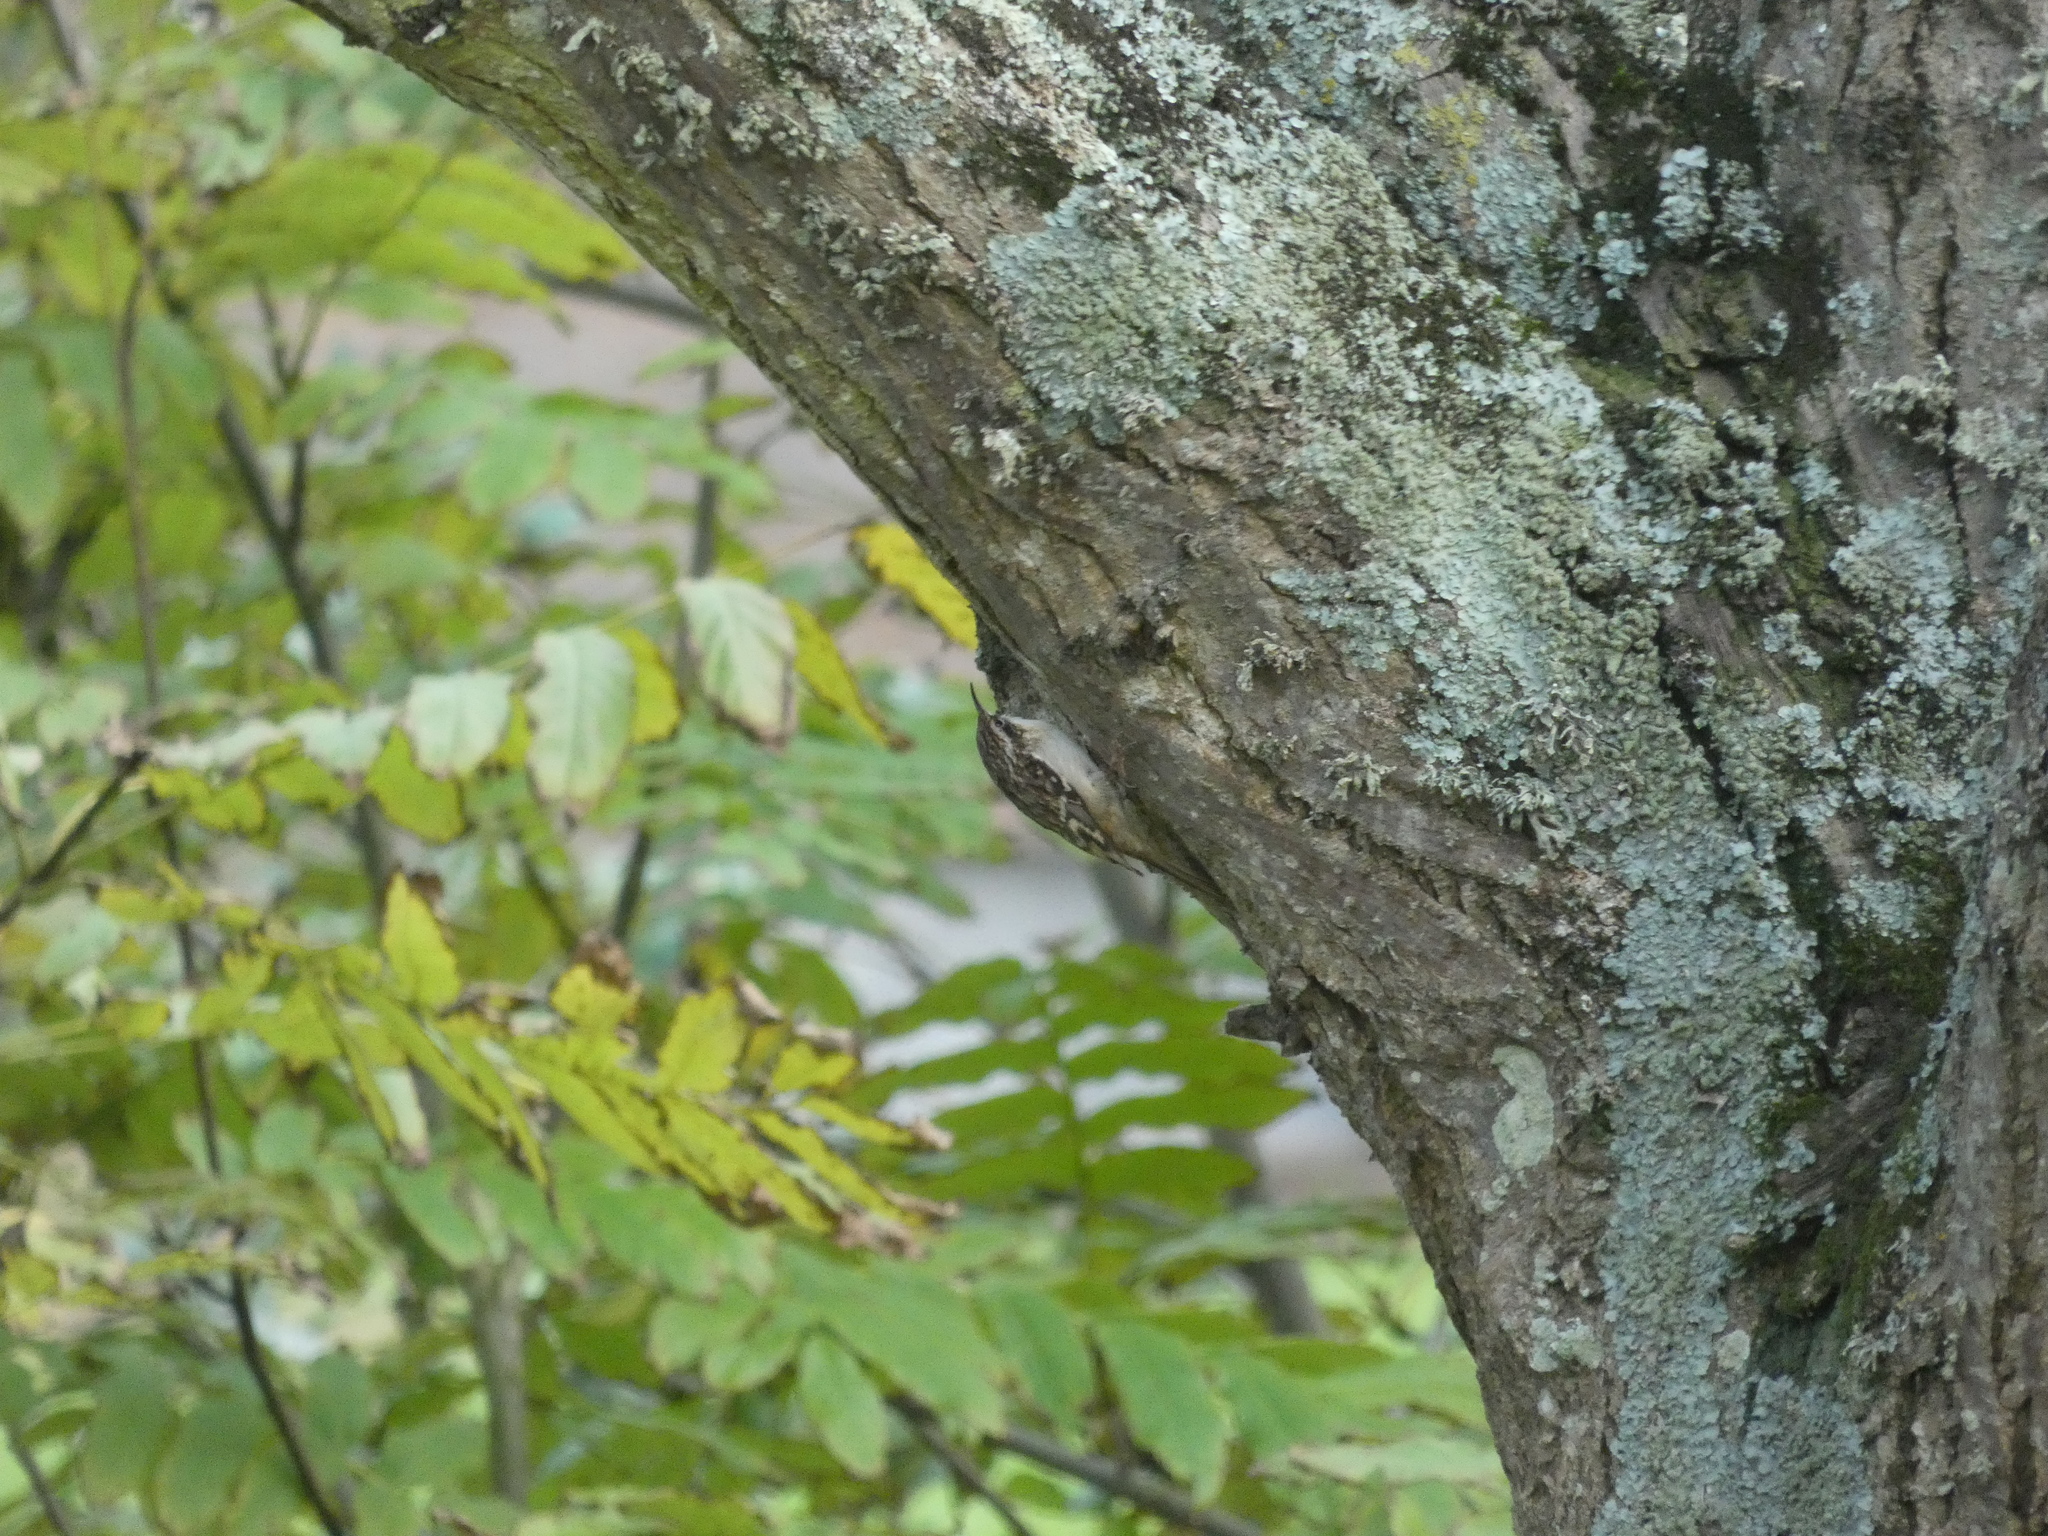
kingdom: Animalia
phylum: Chordata
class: Aves
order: Passeriformes
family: Certhiidae
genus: Certhia
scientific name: Certhia brachydactyla
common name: Short-toed treecreeper
